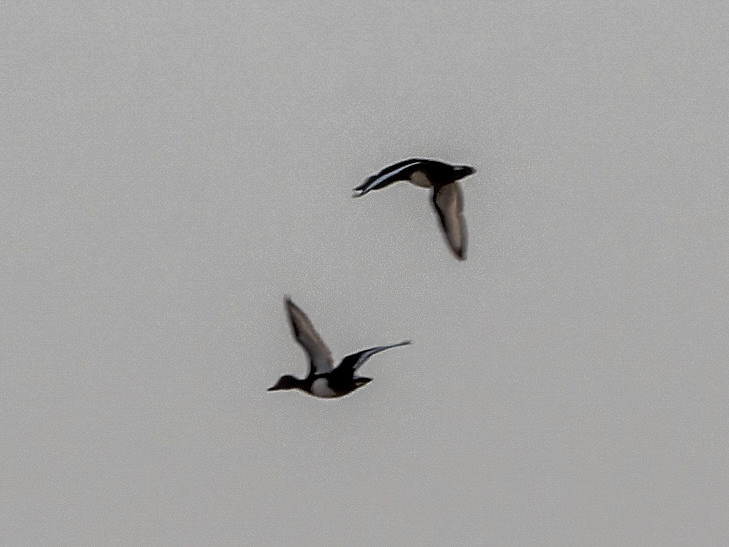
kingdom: Animalia
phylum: Chordata
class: Aves
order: Anseriformes
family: Anatidae
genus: Aythya
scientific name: Aythya nyroca
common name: Ferruginous duck
